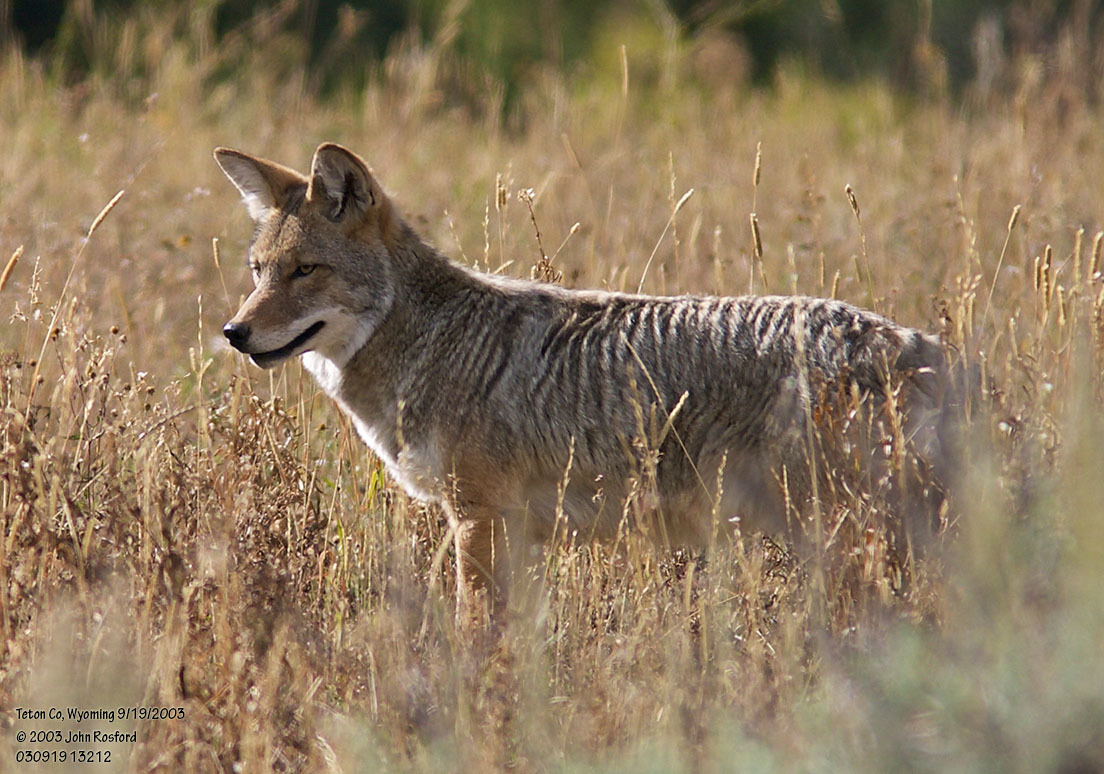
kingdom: Animalia
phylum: Chordata
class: Mammalia
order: Carnivora
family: Canidae
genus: Canis
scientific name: Canis latrans
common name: Coyote
